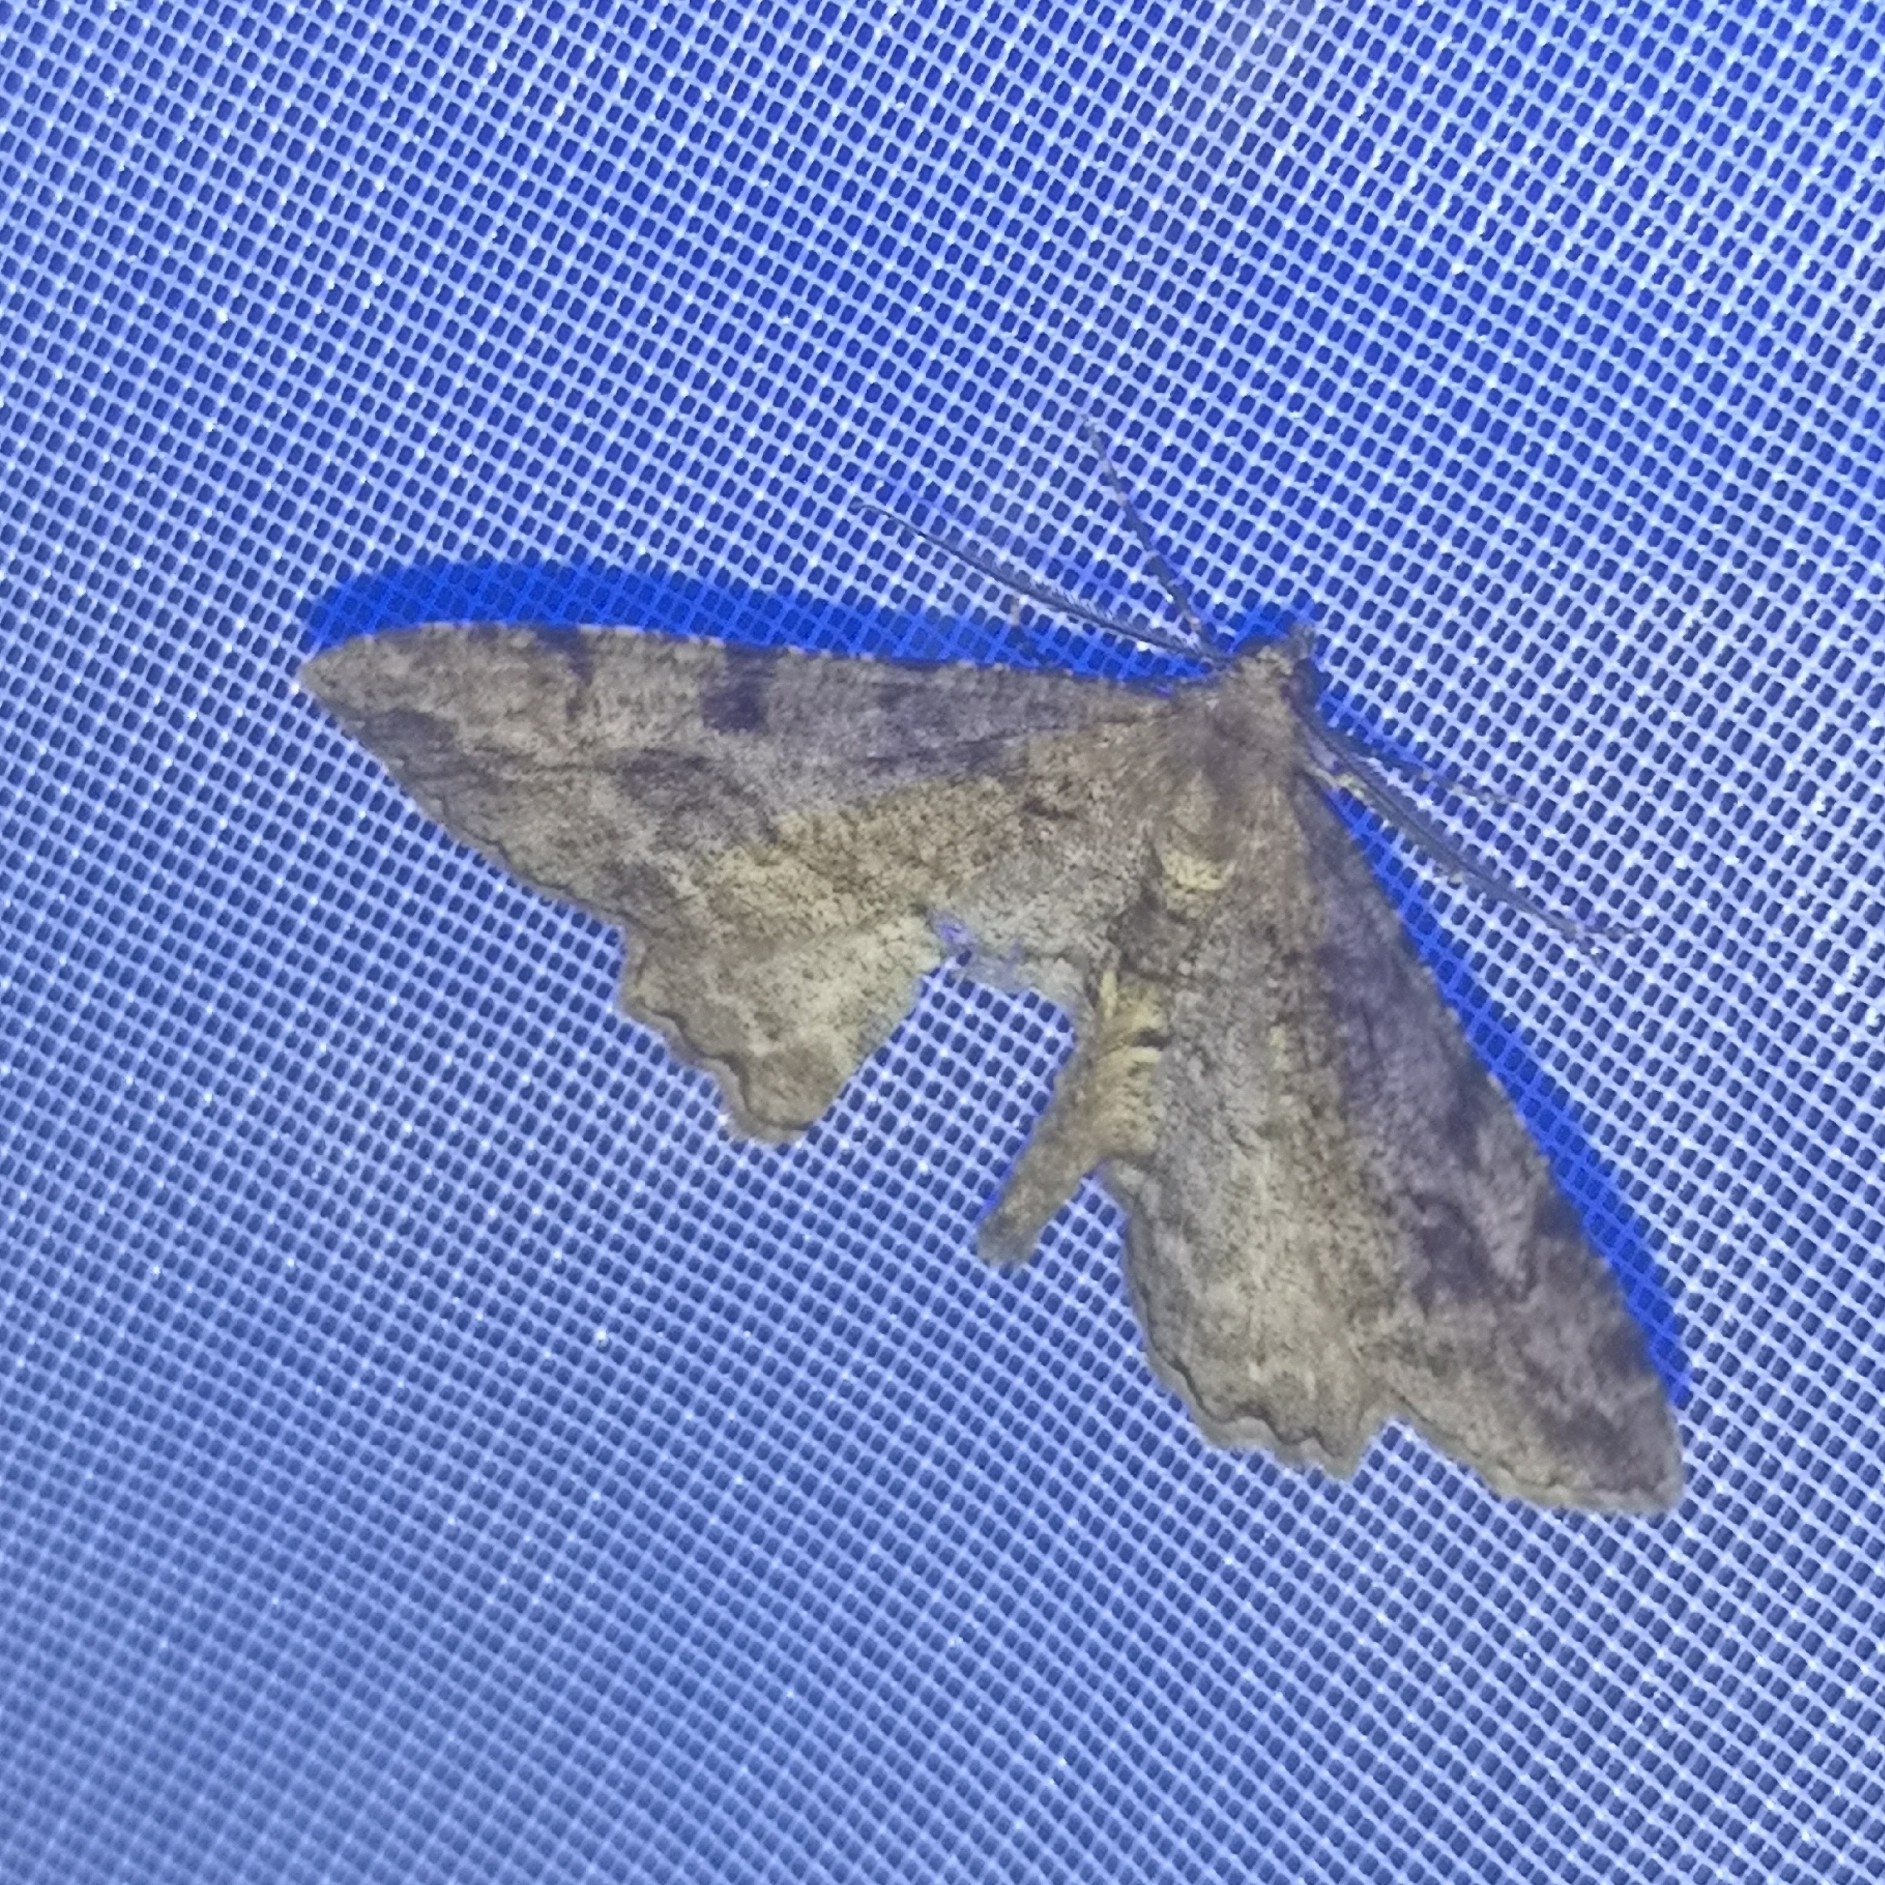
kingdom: Animalia
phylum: Arthropoda
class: Insecta
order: Lepidoptera
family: Geometridae
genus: Alcis
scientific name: Alcis repandata
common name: Mottled beauty
